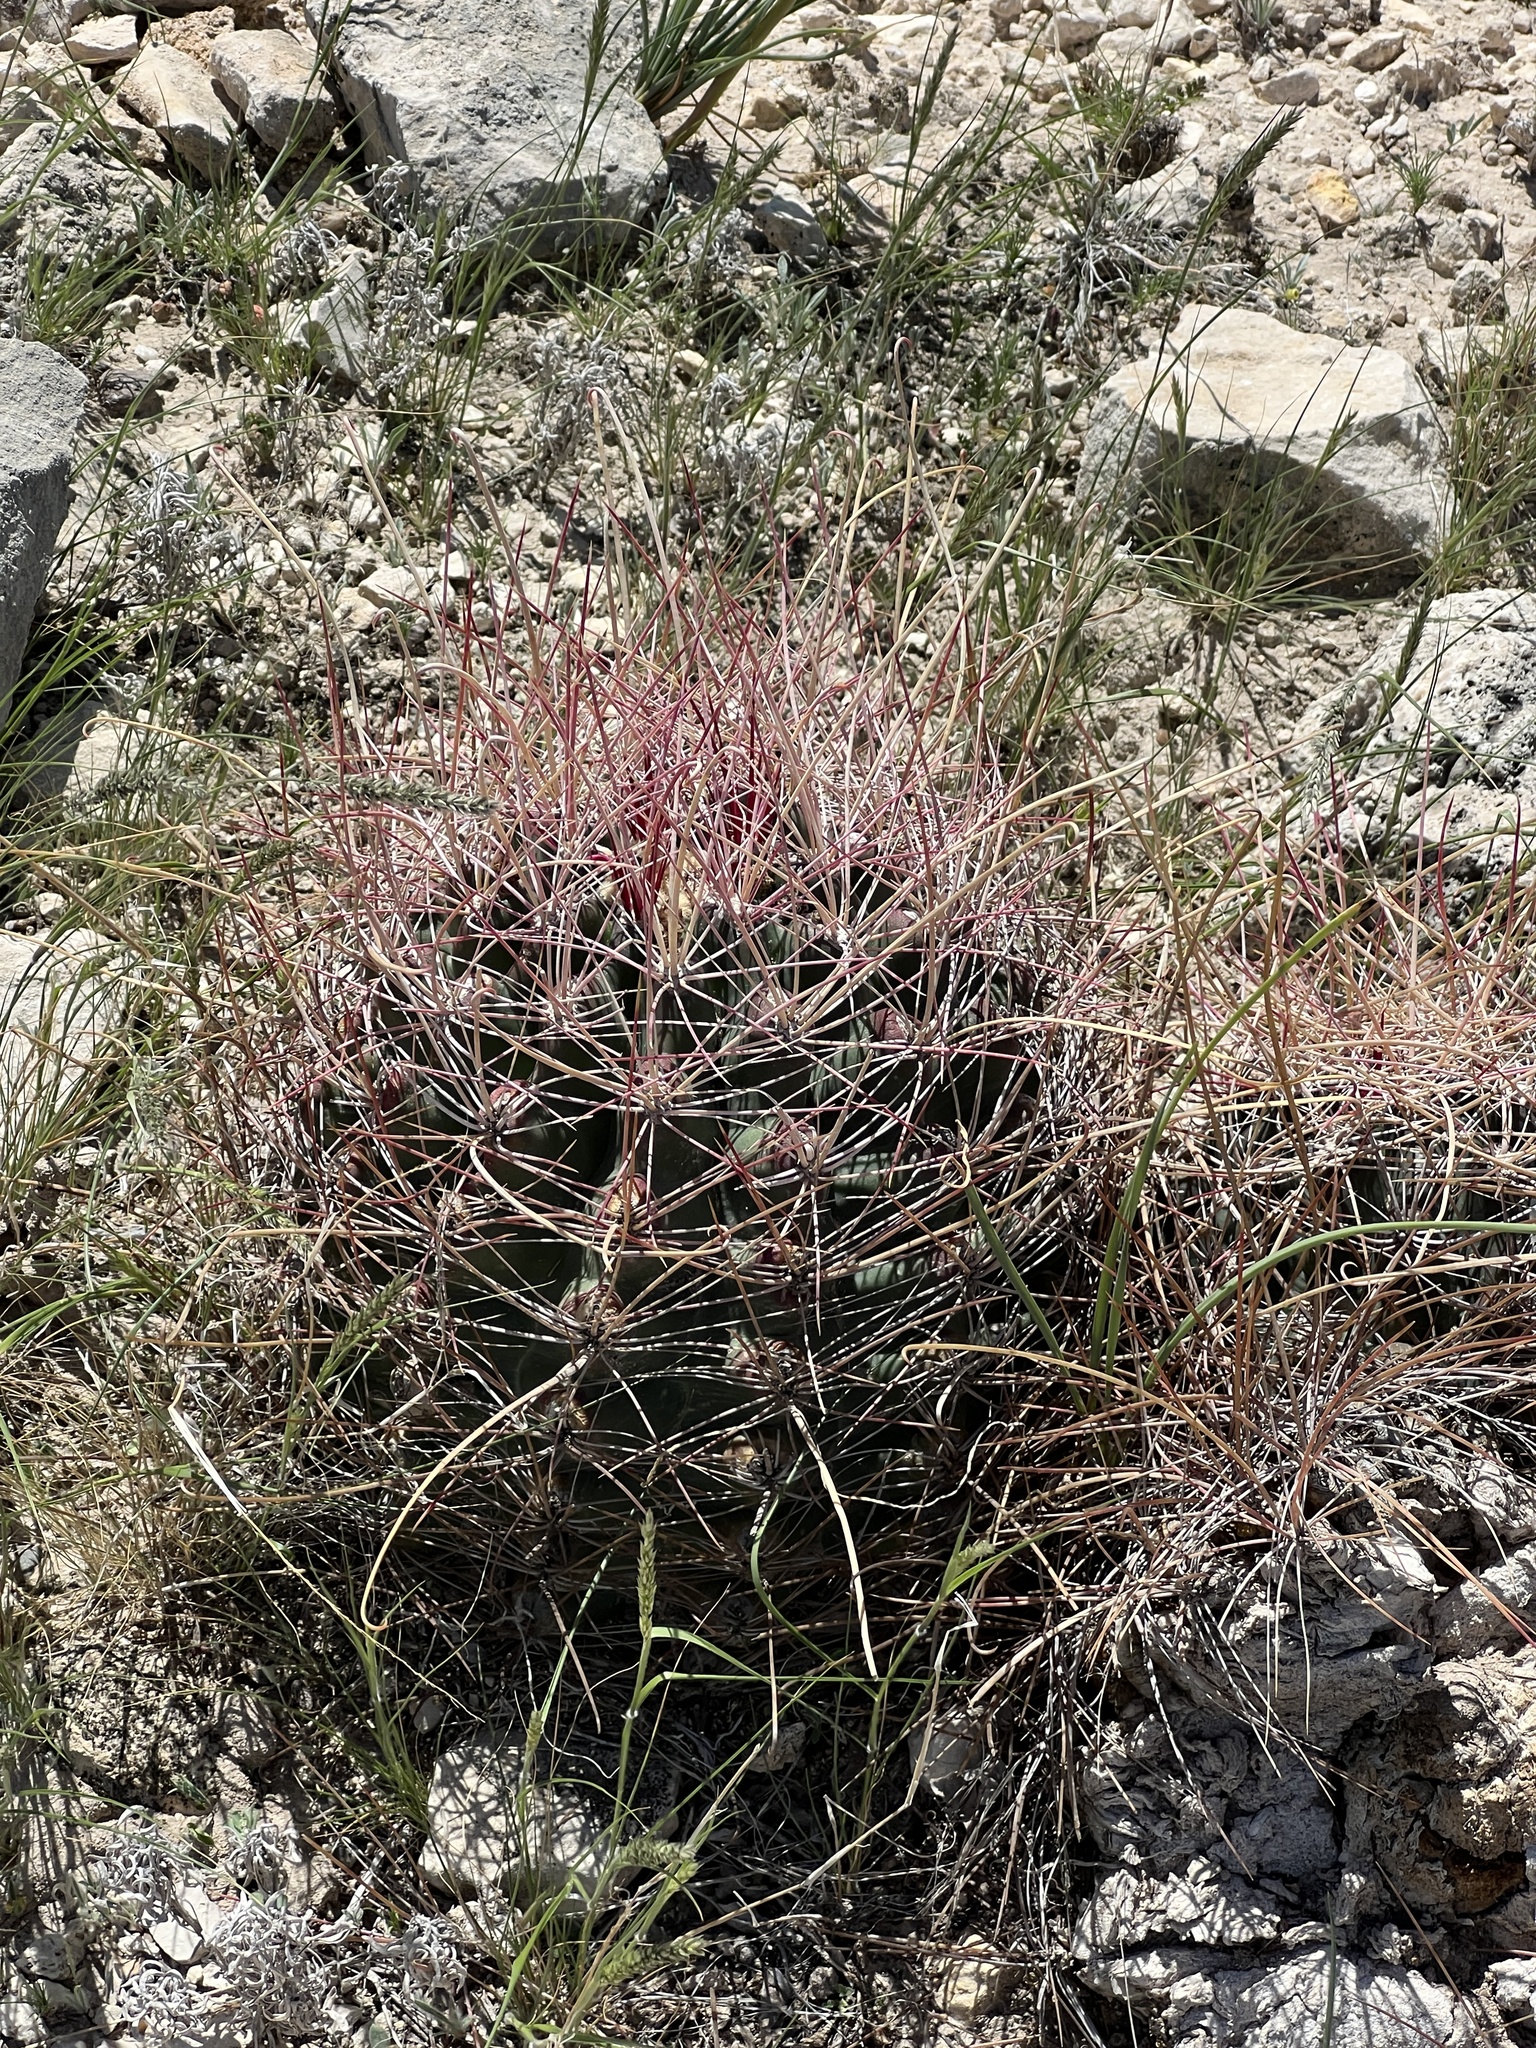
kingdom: Plantae
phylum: Tracheophyta
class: Magnoliopsida
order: Caryophyllales
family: Cactaceae
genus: Bisnaga
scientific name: Bisnaga hamatacantha
